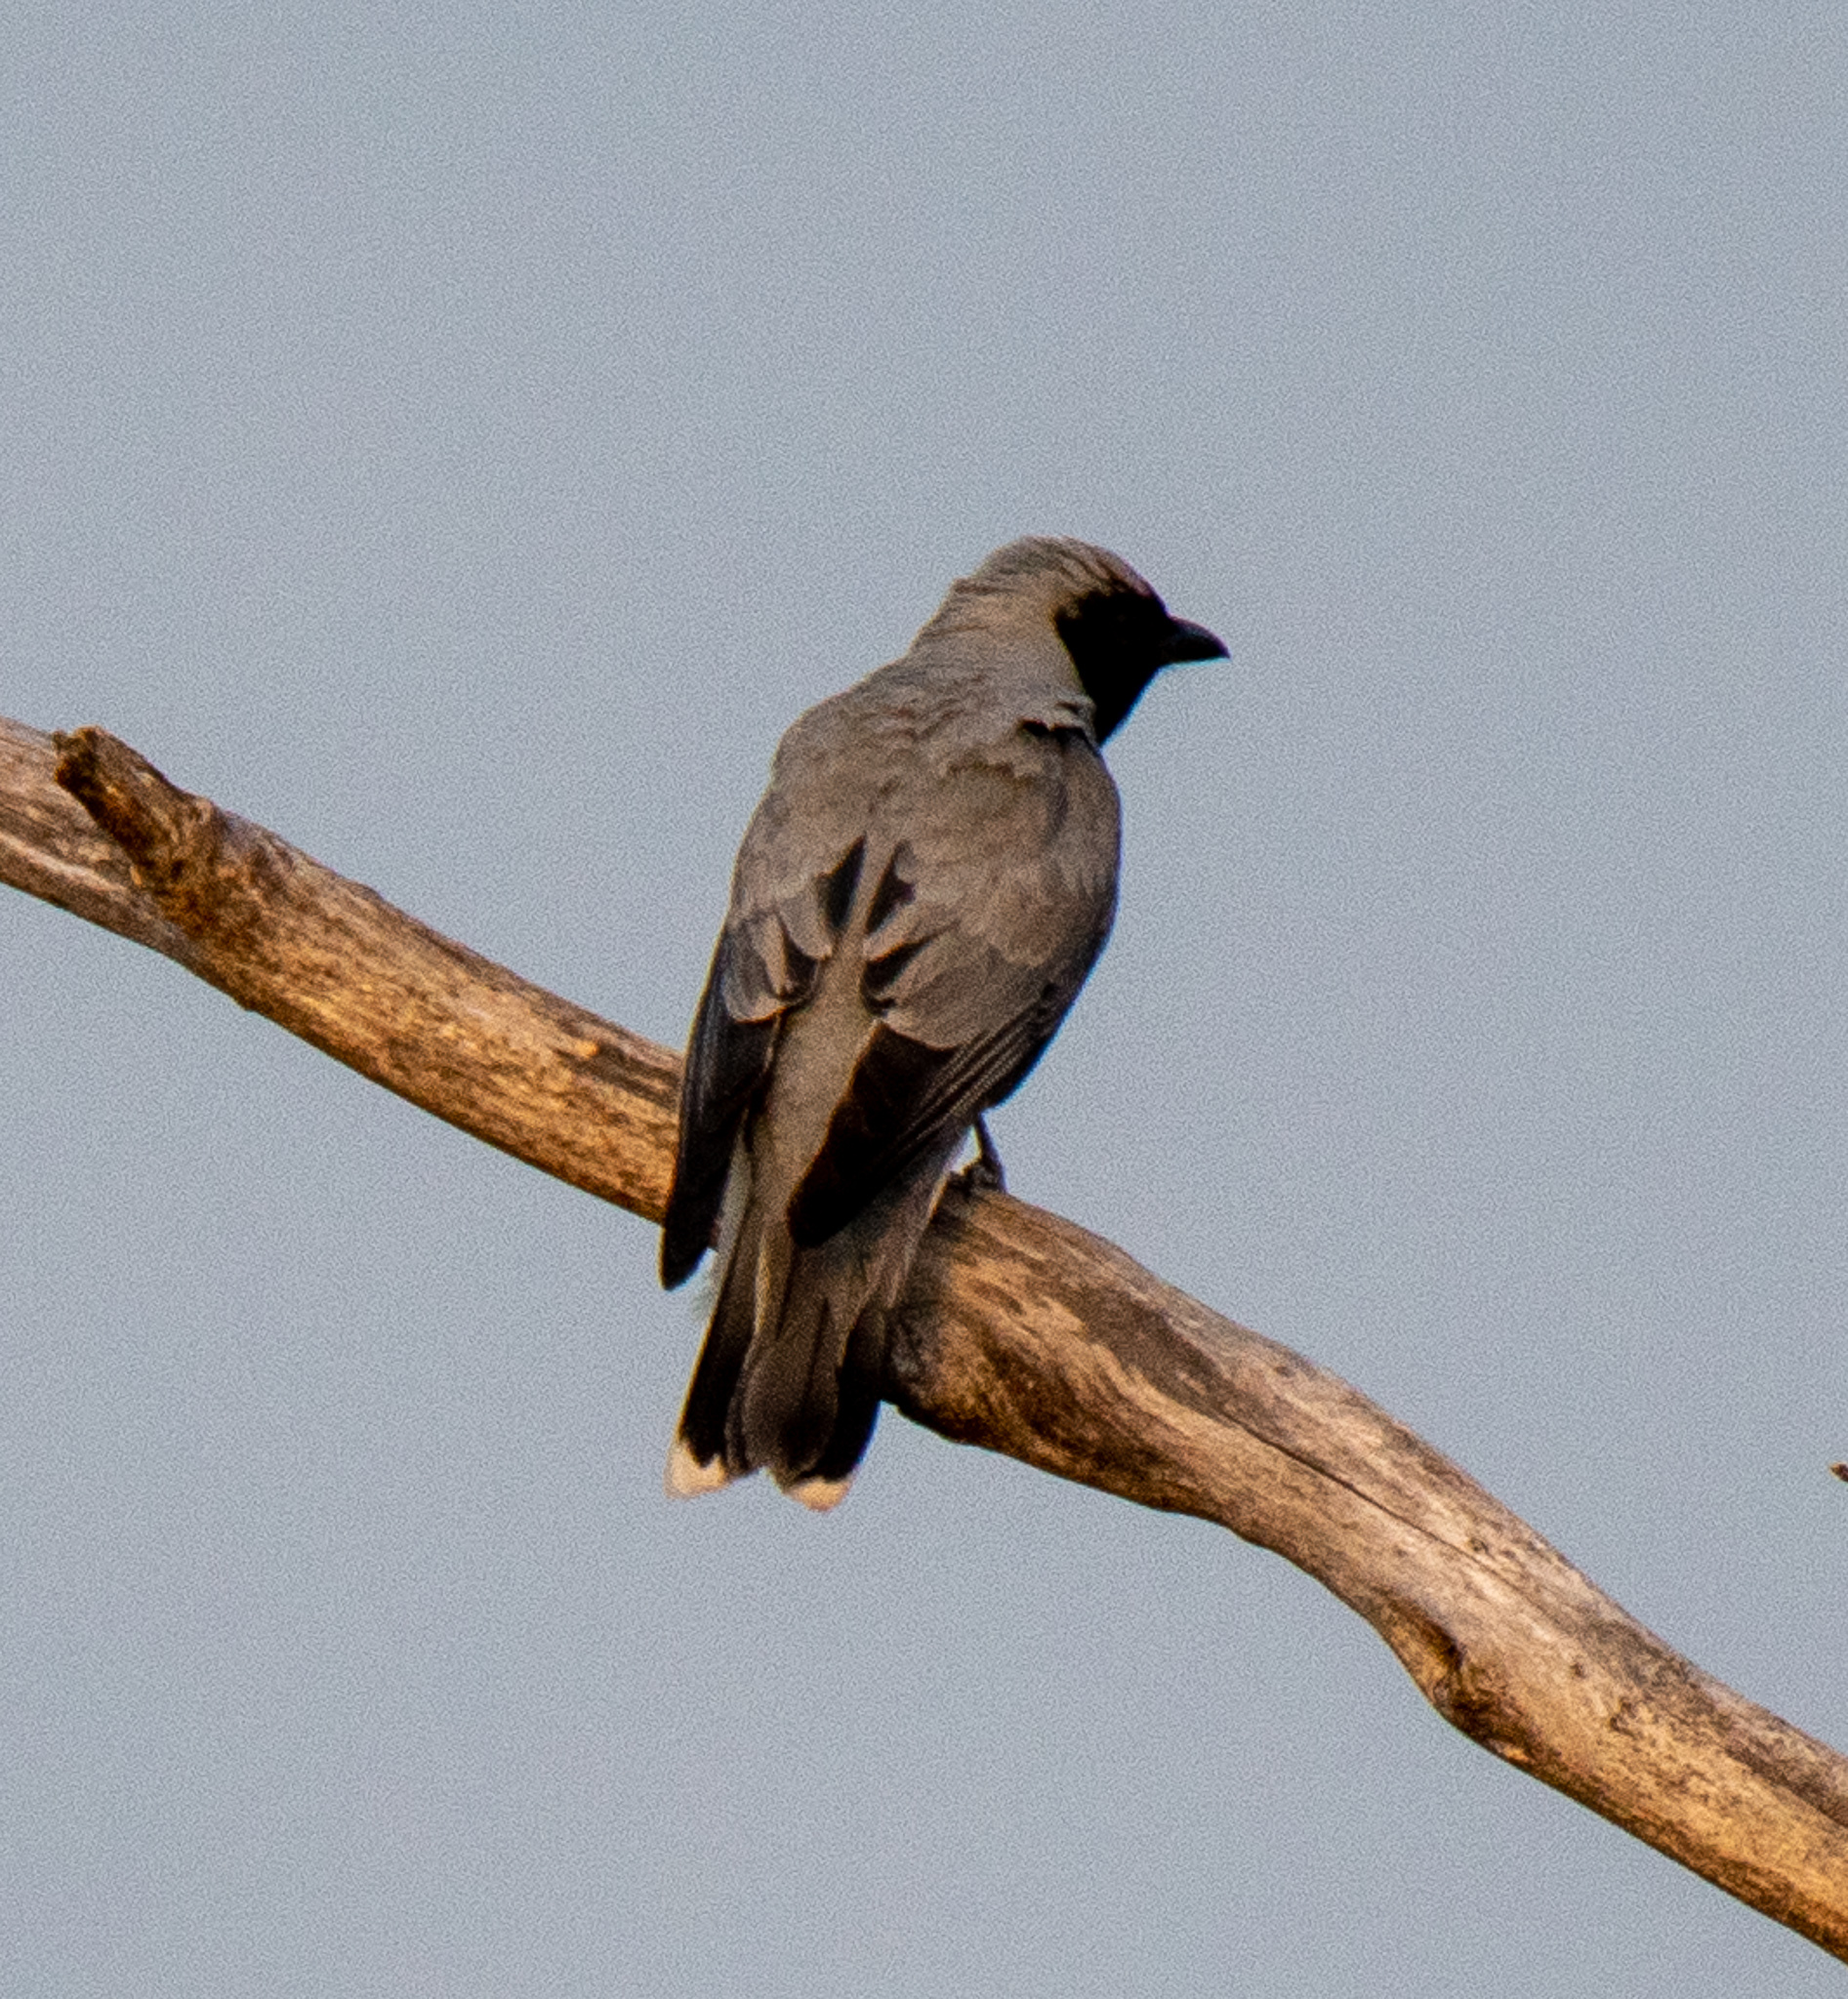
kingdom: Animalia
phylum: Chordata
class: Aves
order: Passeriformes
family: Campephagidae
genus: Coracina
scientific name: Coracina novaehollandiae
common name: Black-faced cuckooshrike
